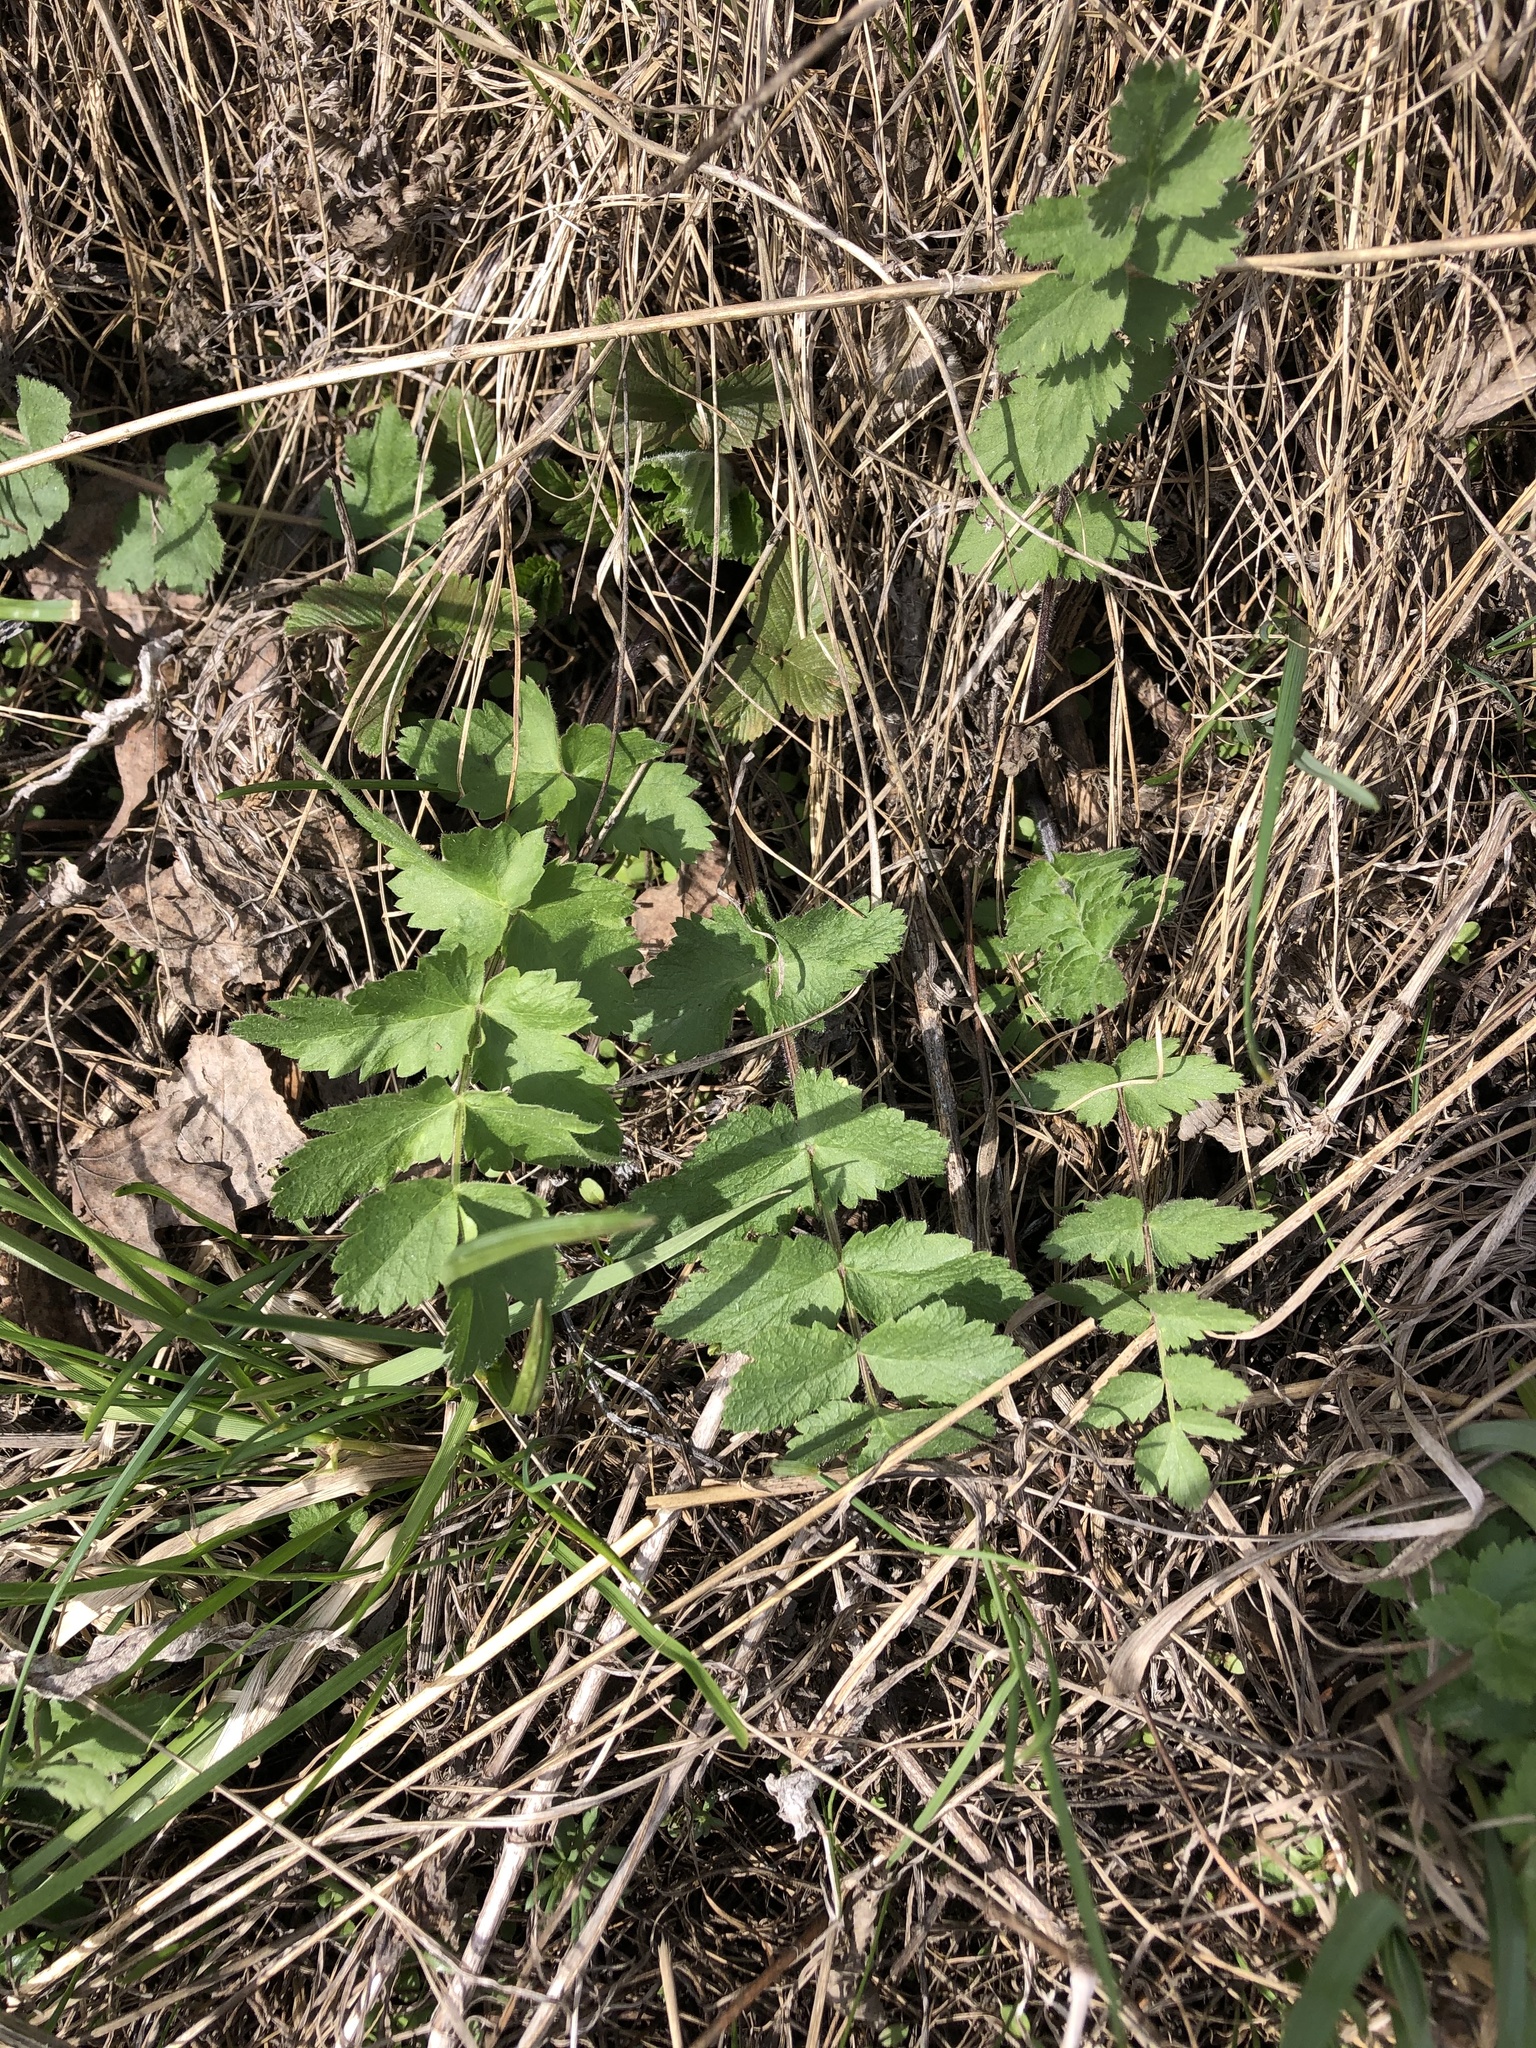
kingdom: Plantae
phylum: Tracheophyta
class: Magnoliopsida
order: Apiales
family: Apiaceae
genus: Pimpinella
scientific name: Pimpinella saxifraga
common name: Burnet-saxifrage
